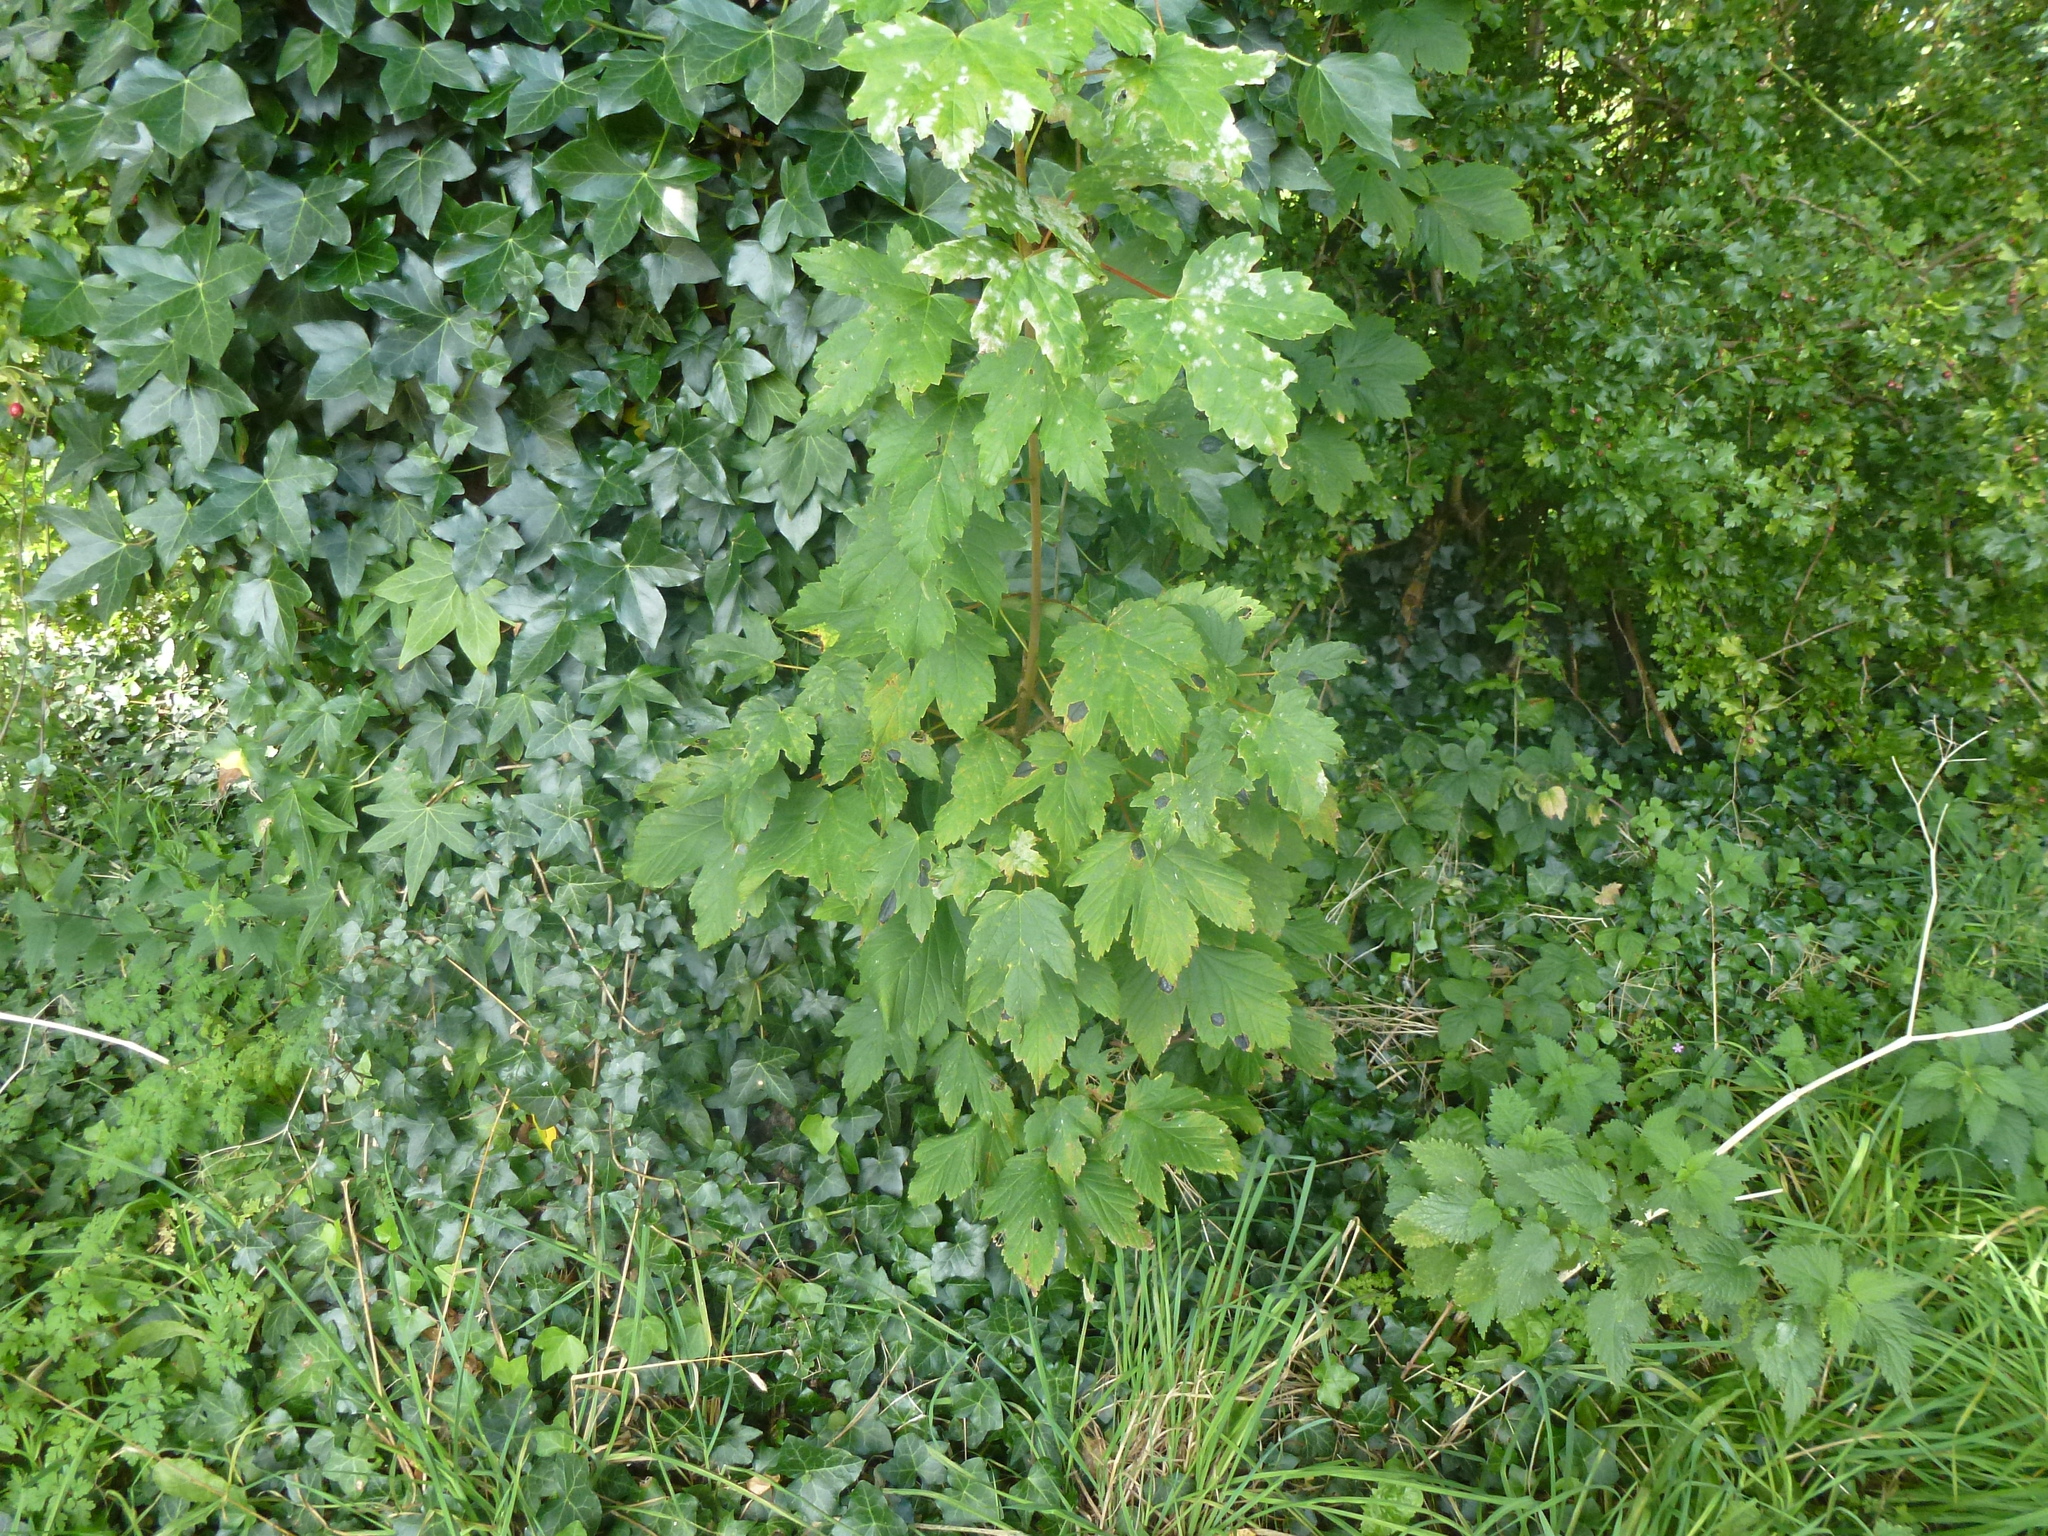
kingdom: Plantae
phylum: Tracheophyta
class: Magnoliopsida
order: Sapindales
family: Sapindaceae
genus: Acer
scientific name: Acer pseudoplatanus
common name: Sycamore
